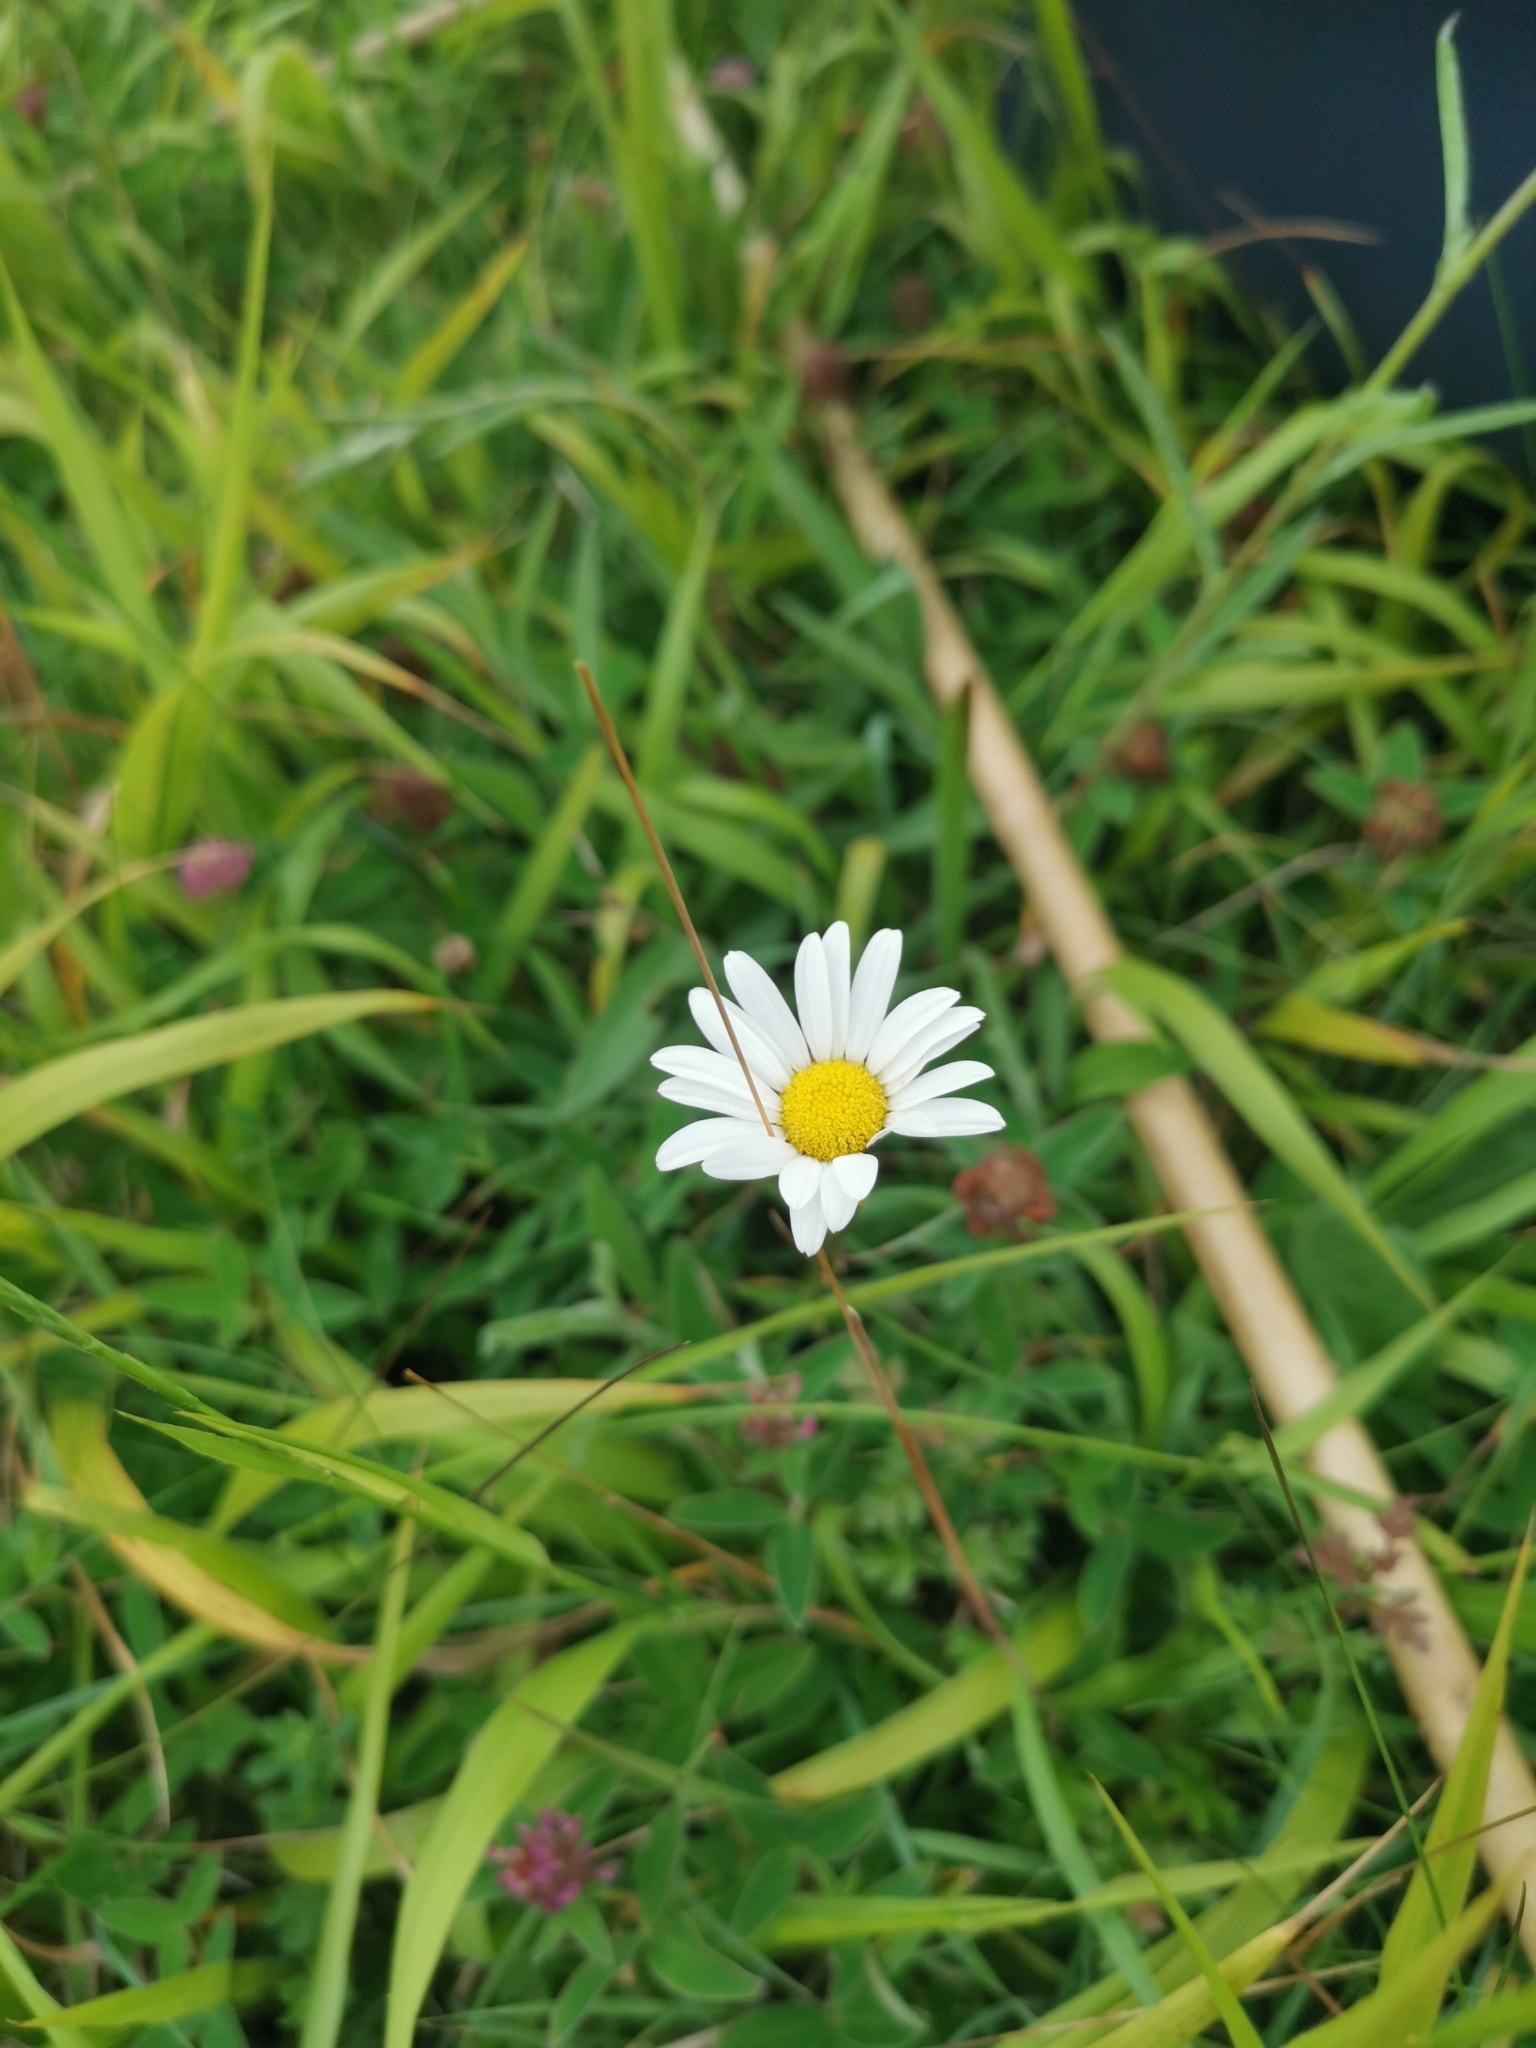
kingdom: Plantae
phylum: Tracheophyta
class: Magnoliopsida
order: Asterales
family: Asteraceae
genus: Leucanthemum
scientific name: Leucanthemum vulgare
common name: Oxeye daisy
